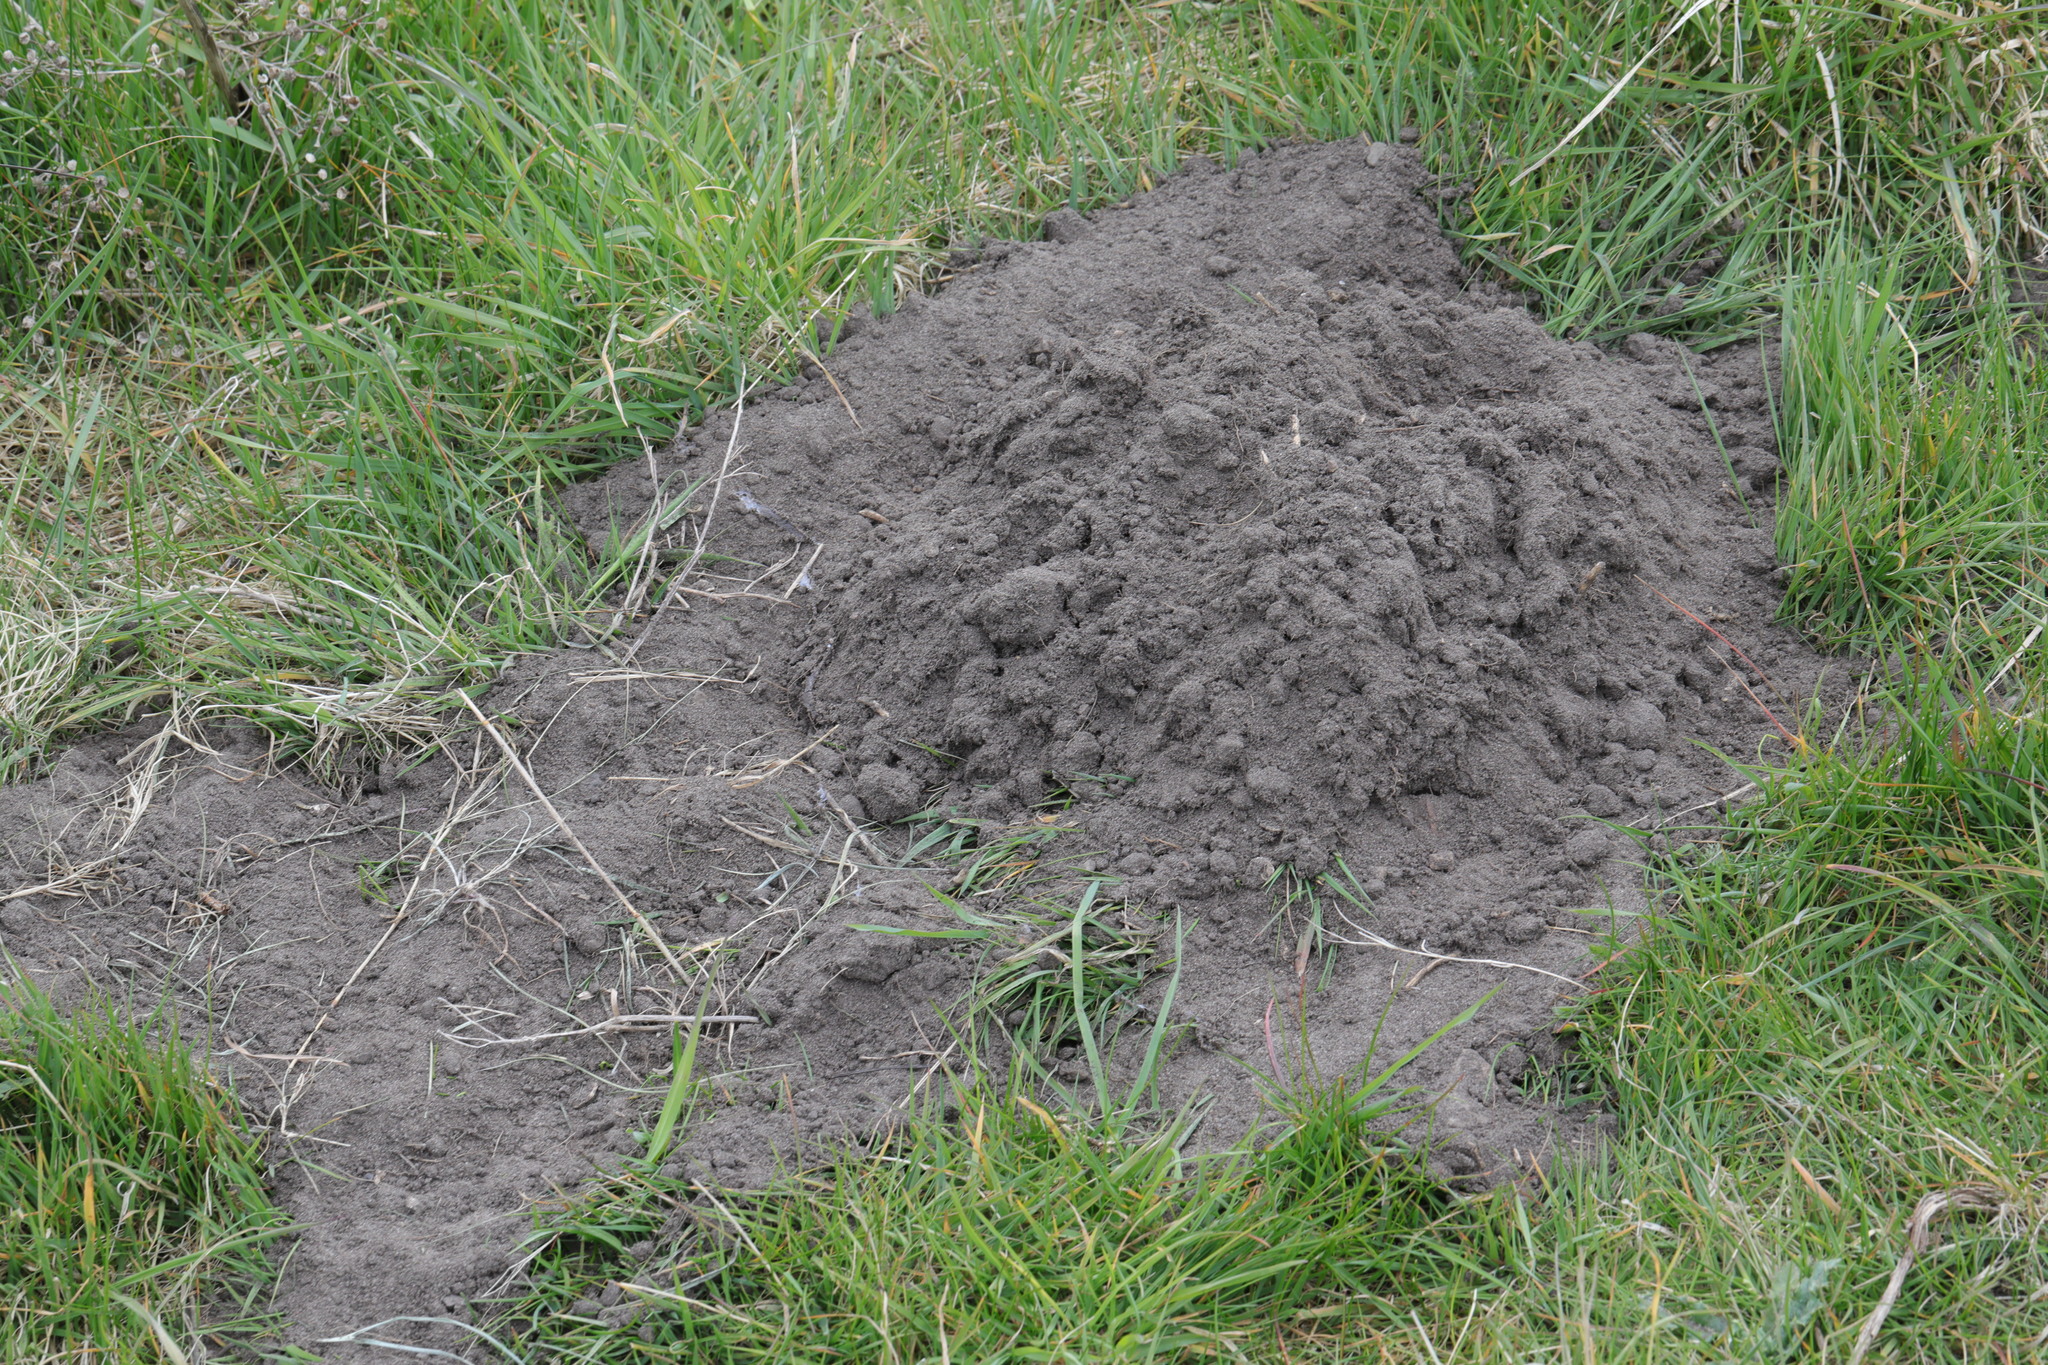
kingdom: Animalia
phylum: Chordata
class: Mammalia
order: Soricomorpha
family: Talpidae
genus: Talpa
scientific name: Talpa europaea
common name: European mole
